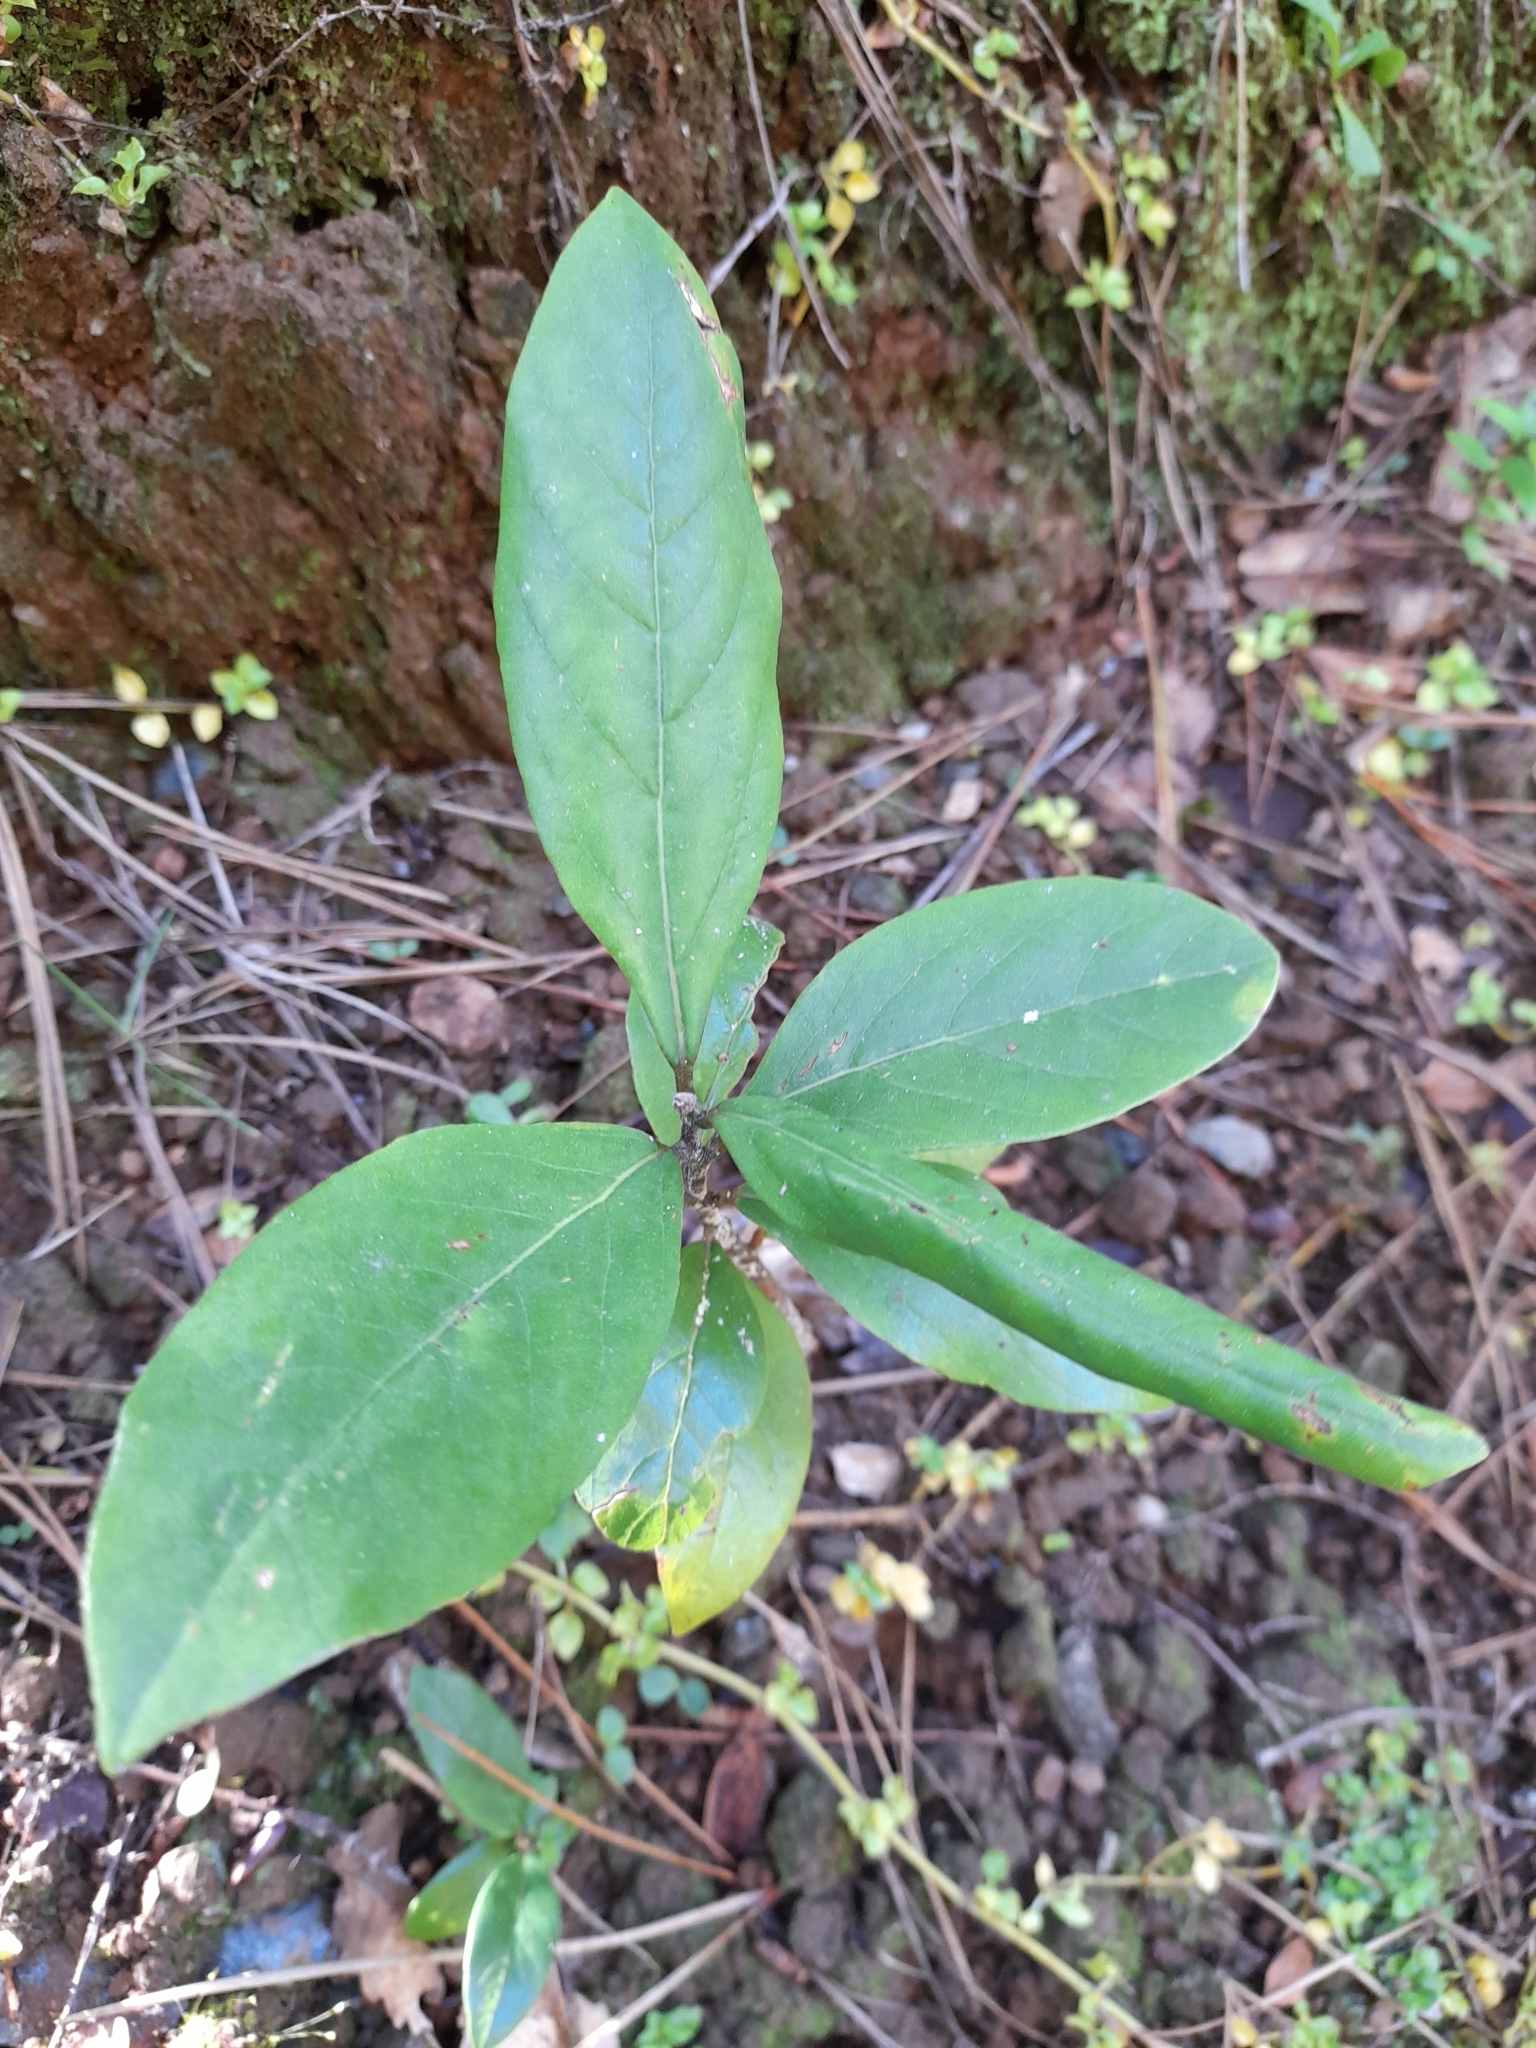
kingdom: Plantae
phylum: Tracheophyta
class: Magnoliopsida
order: Laurales
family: Lauraceae
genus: Persea
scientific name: Persea lingue
